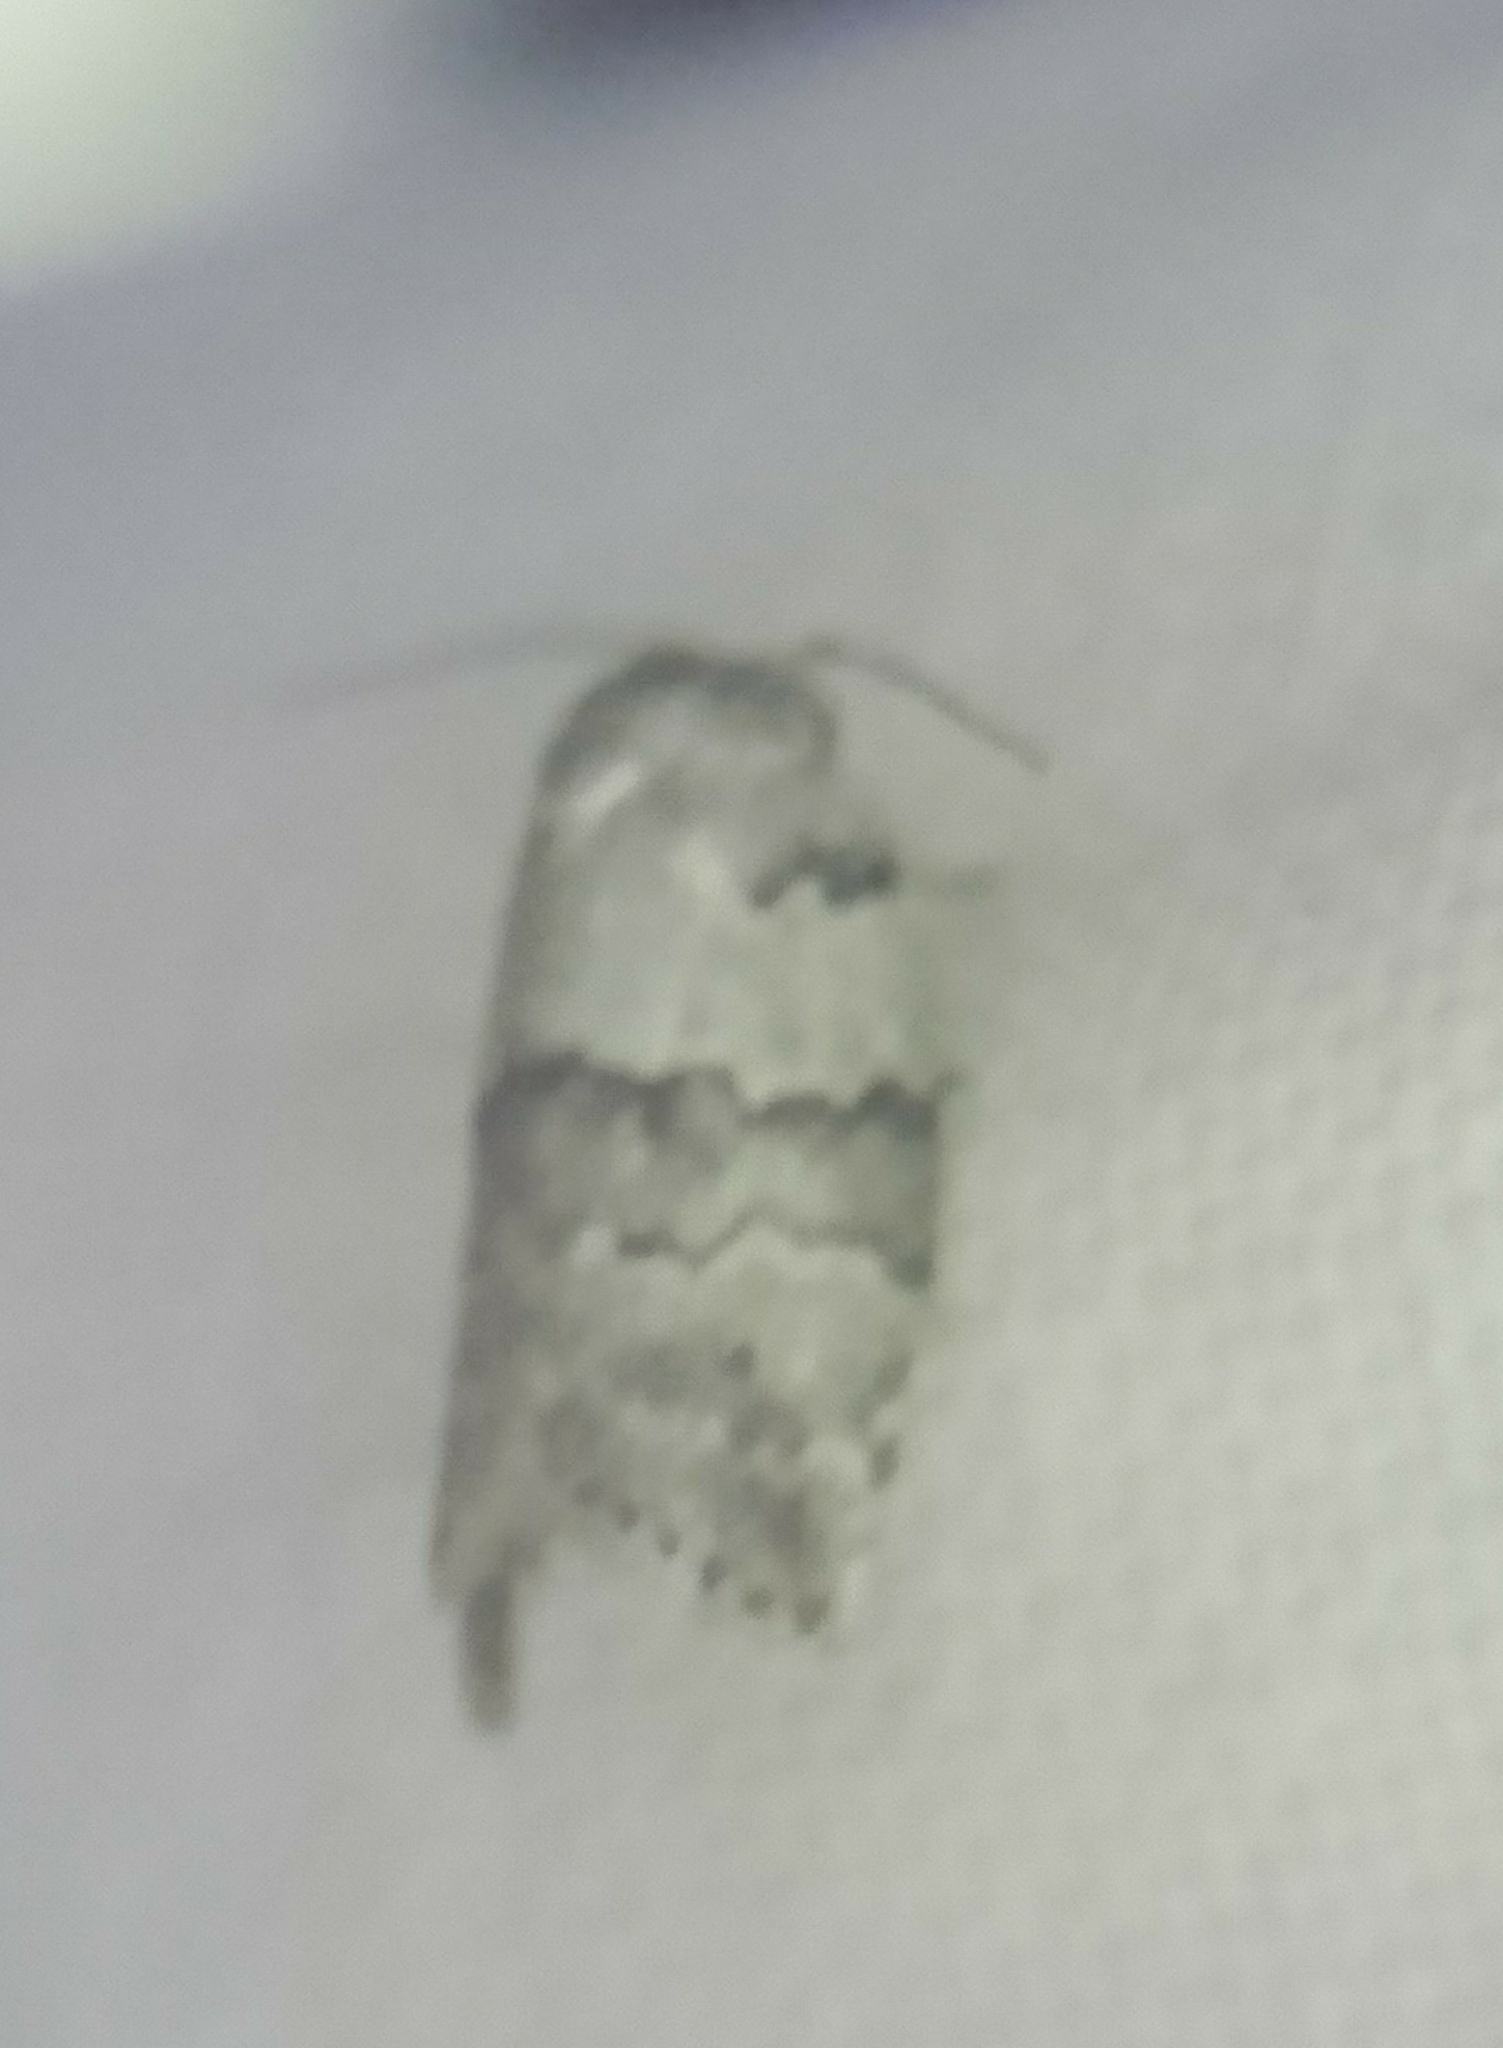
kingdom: Animalia
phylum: Arthropoda
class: Insecta
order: Lepidoptera
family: Nolidae
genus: Afrida
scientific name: Afrida ydatodes
